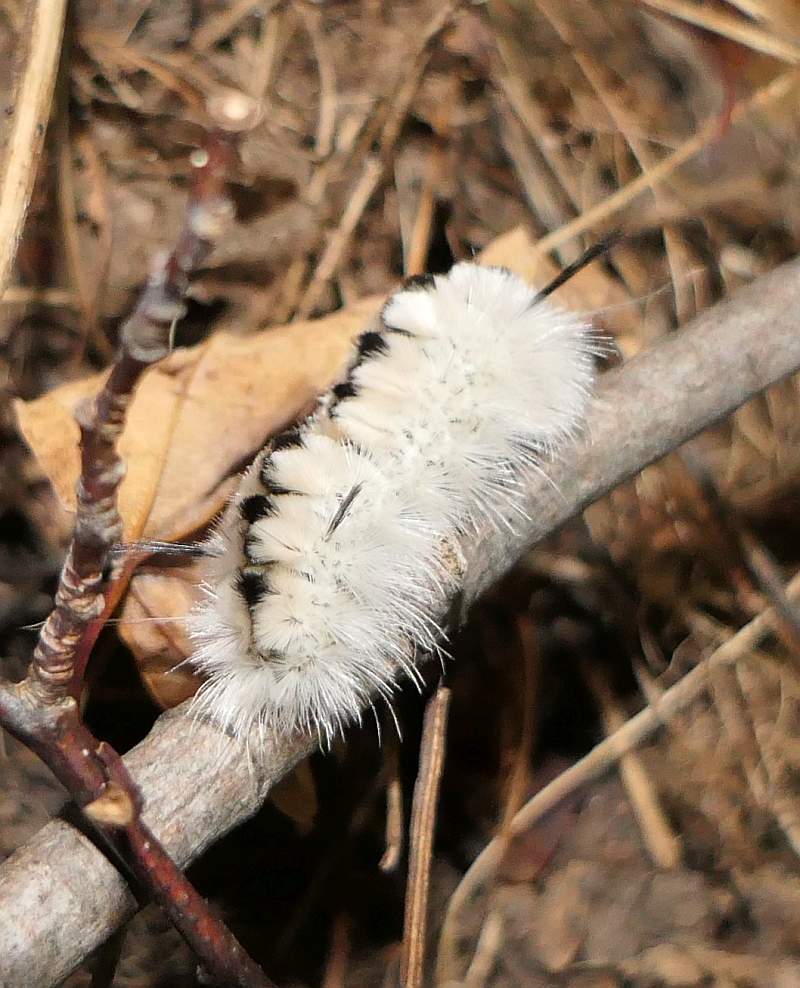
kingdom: Animalia
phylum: Arthropoda
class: Insecta
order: Lepidoptera
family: Erebidae
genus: Lophocampa
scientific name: Lophocampa caryae
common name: Hickory tussock moth
